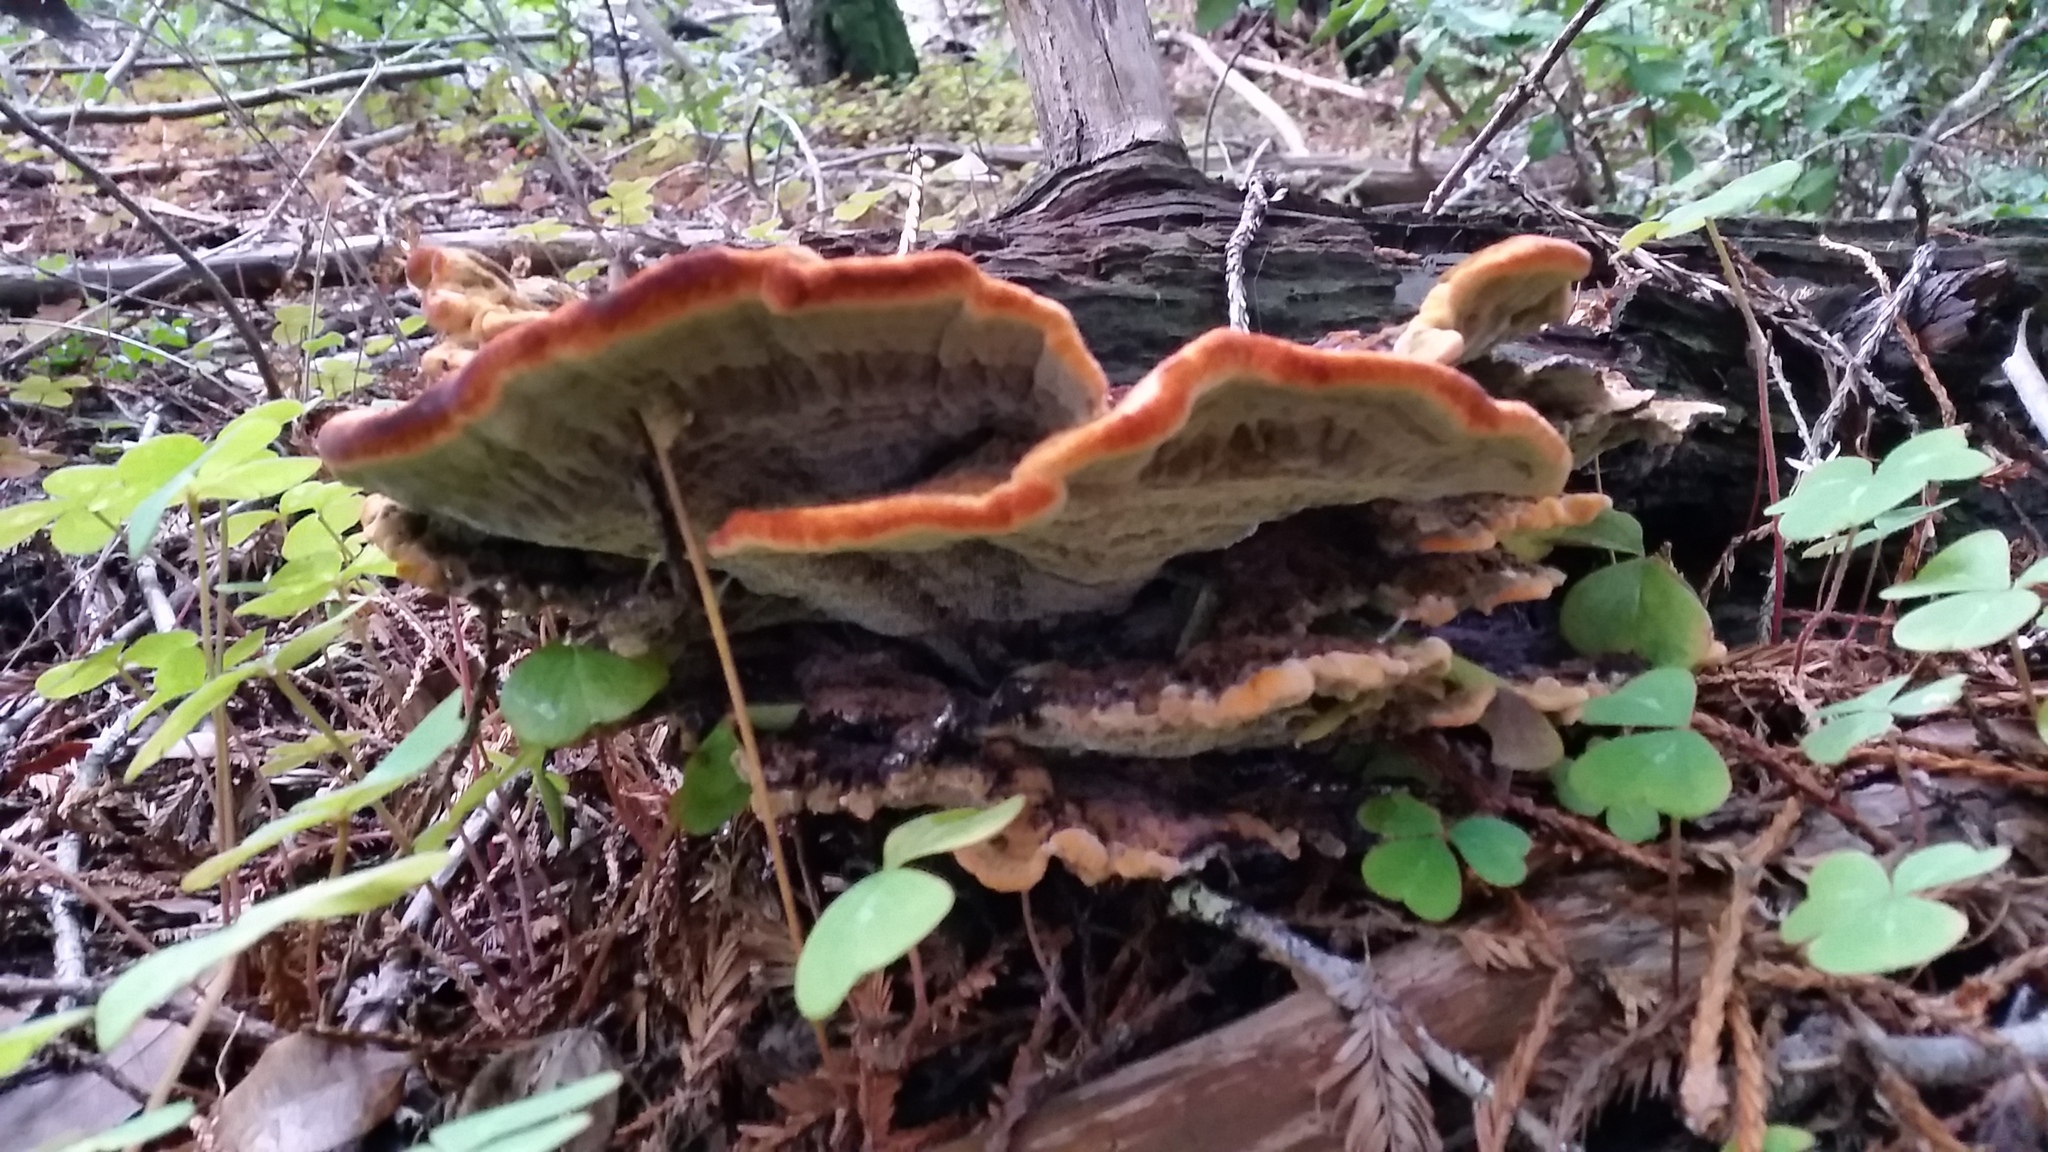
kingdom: Fungi
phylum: Basidiomycota
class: Agaricomycetes
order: Polyporales
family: Laetiporaceae
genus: Phaeolus
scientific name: Phaeolus schweinitzii
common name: Dyer's mazegill
